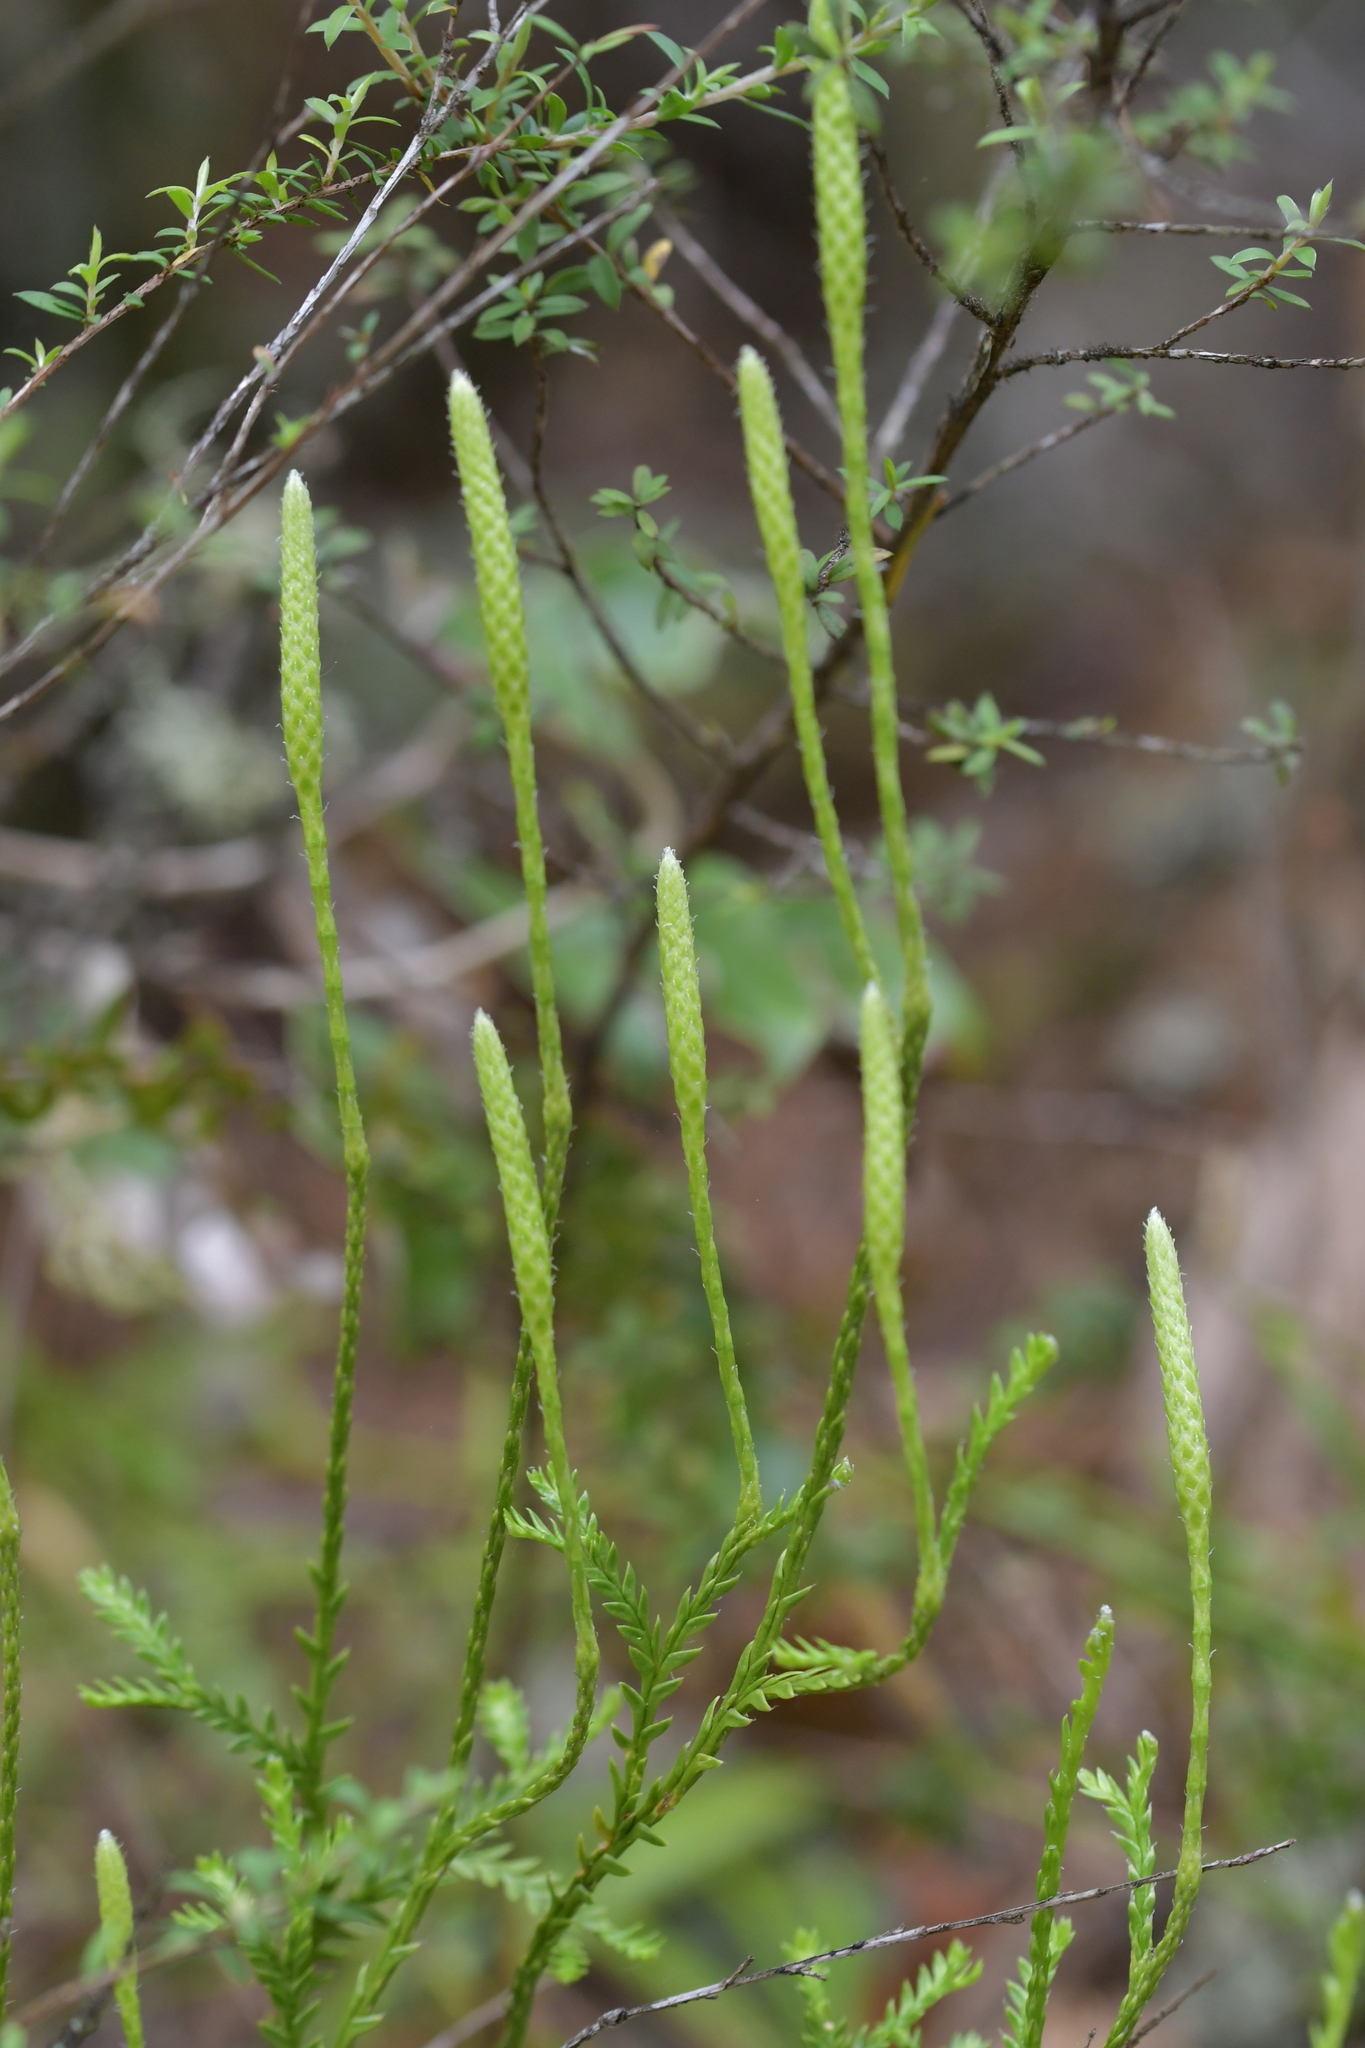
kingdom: Plantae
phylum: Tracheophyta
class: Lycopodiopsida
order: Lycopodiales
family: Lycopodiaceae
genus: Diphasium
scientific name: Diphasium scariosum
